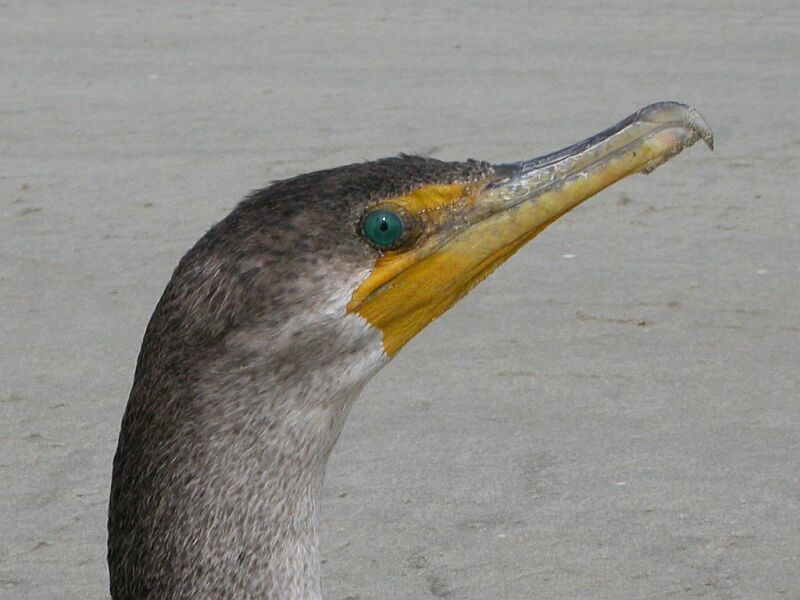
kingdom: Animalia
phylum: Chordata
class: Aves
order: Suliformes
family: Phalacrocoracidae
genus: Phalacrocorax
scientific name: Phalacrocorax auritus
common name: Double-crested cormorant
